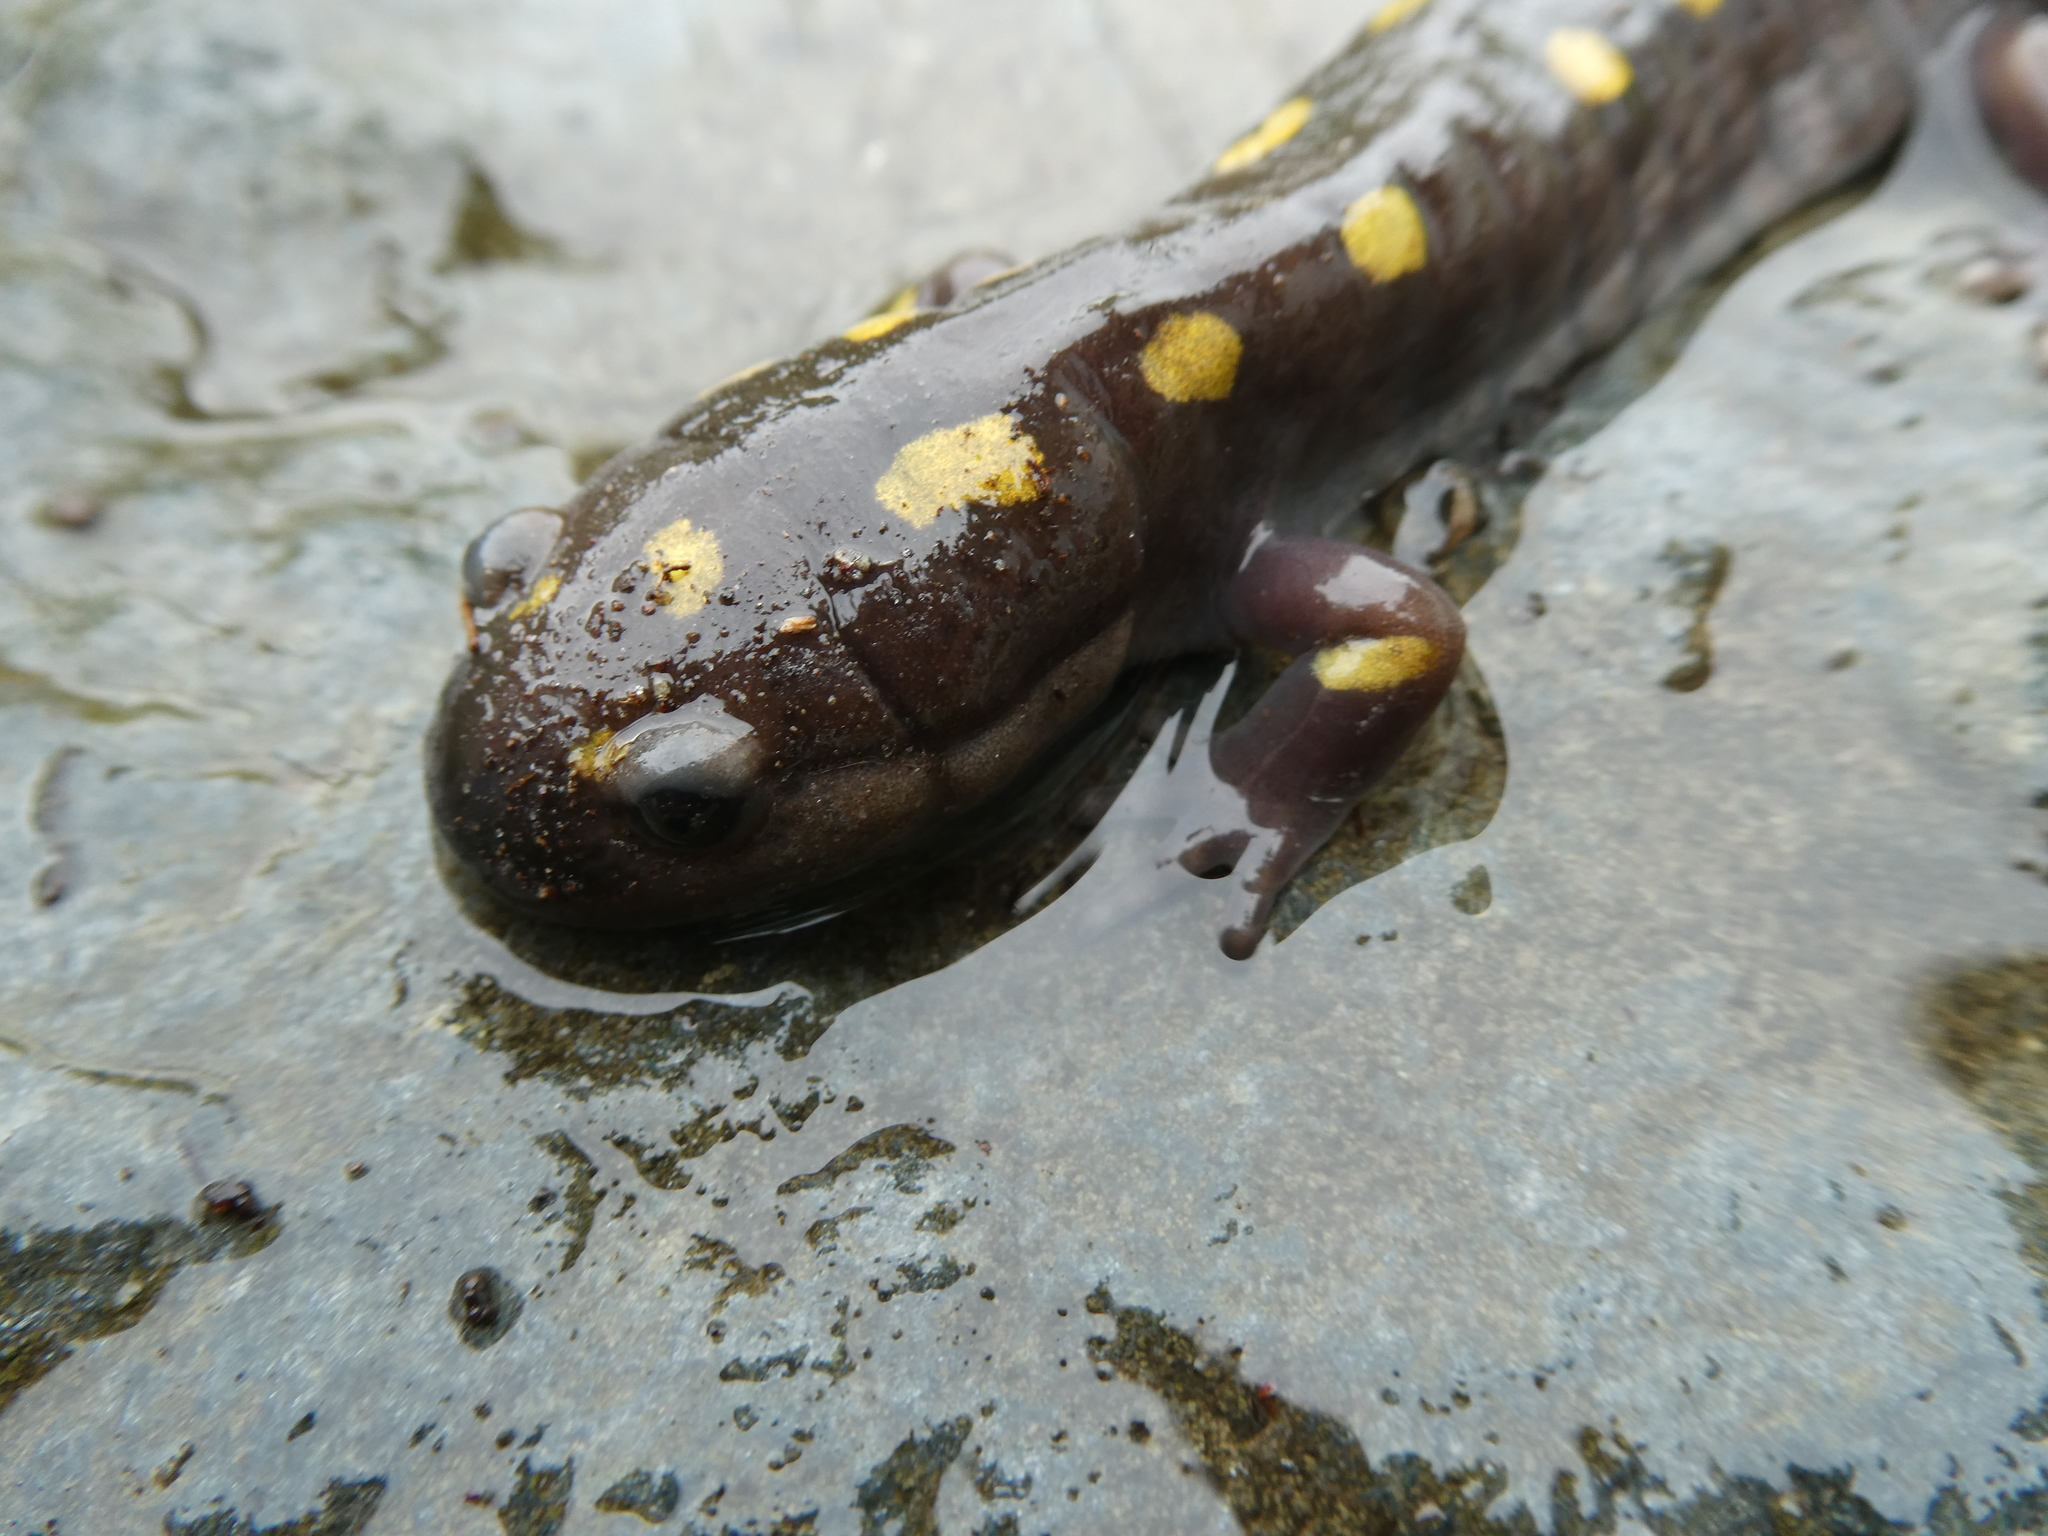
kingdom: Animalia
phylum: Chordata
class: Amphibia
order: Caudata
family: Ambystomatidae
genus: Ambystoma
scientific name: Ambystoma maculatum
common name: Spotted salamander
